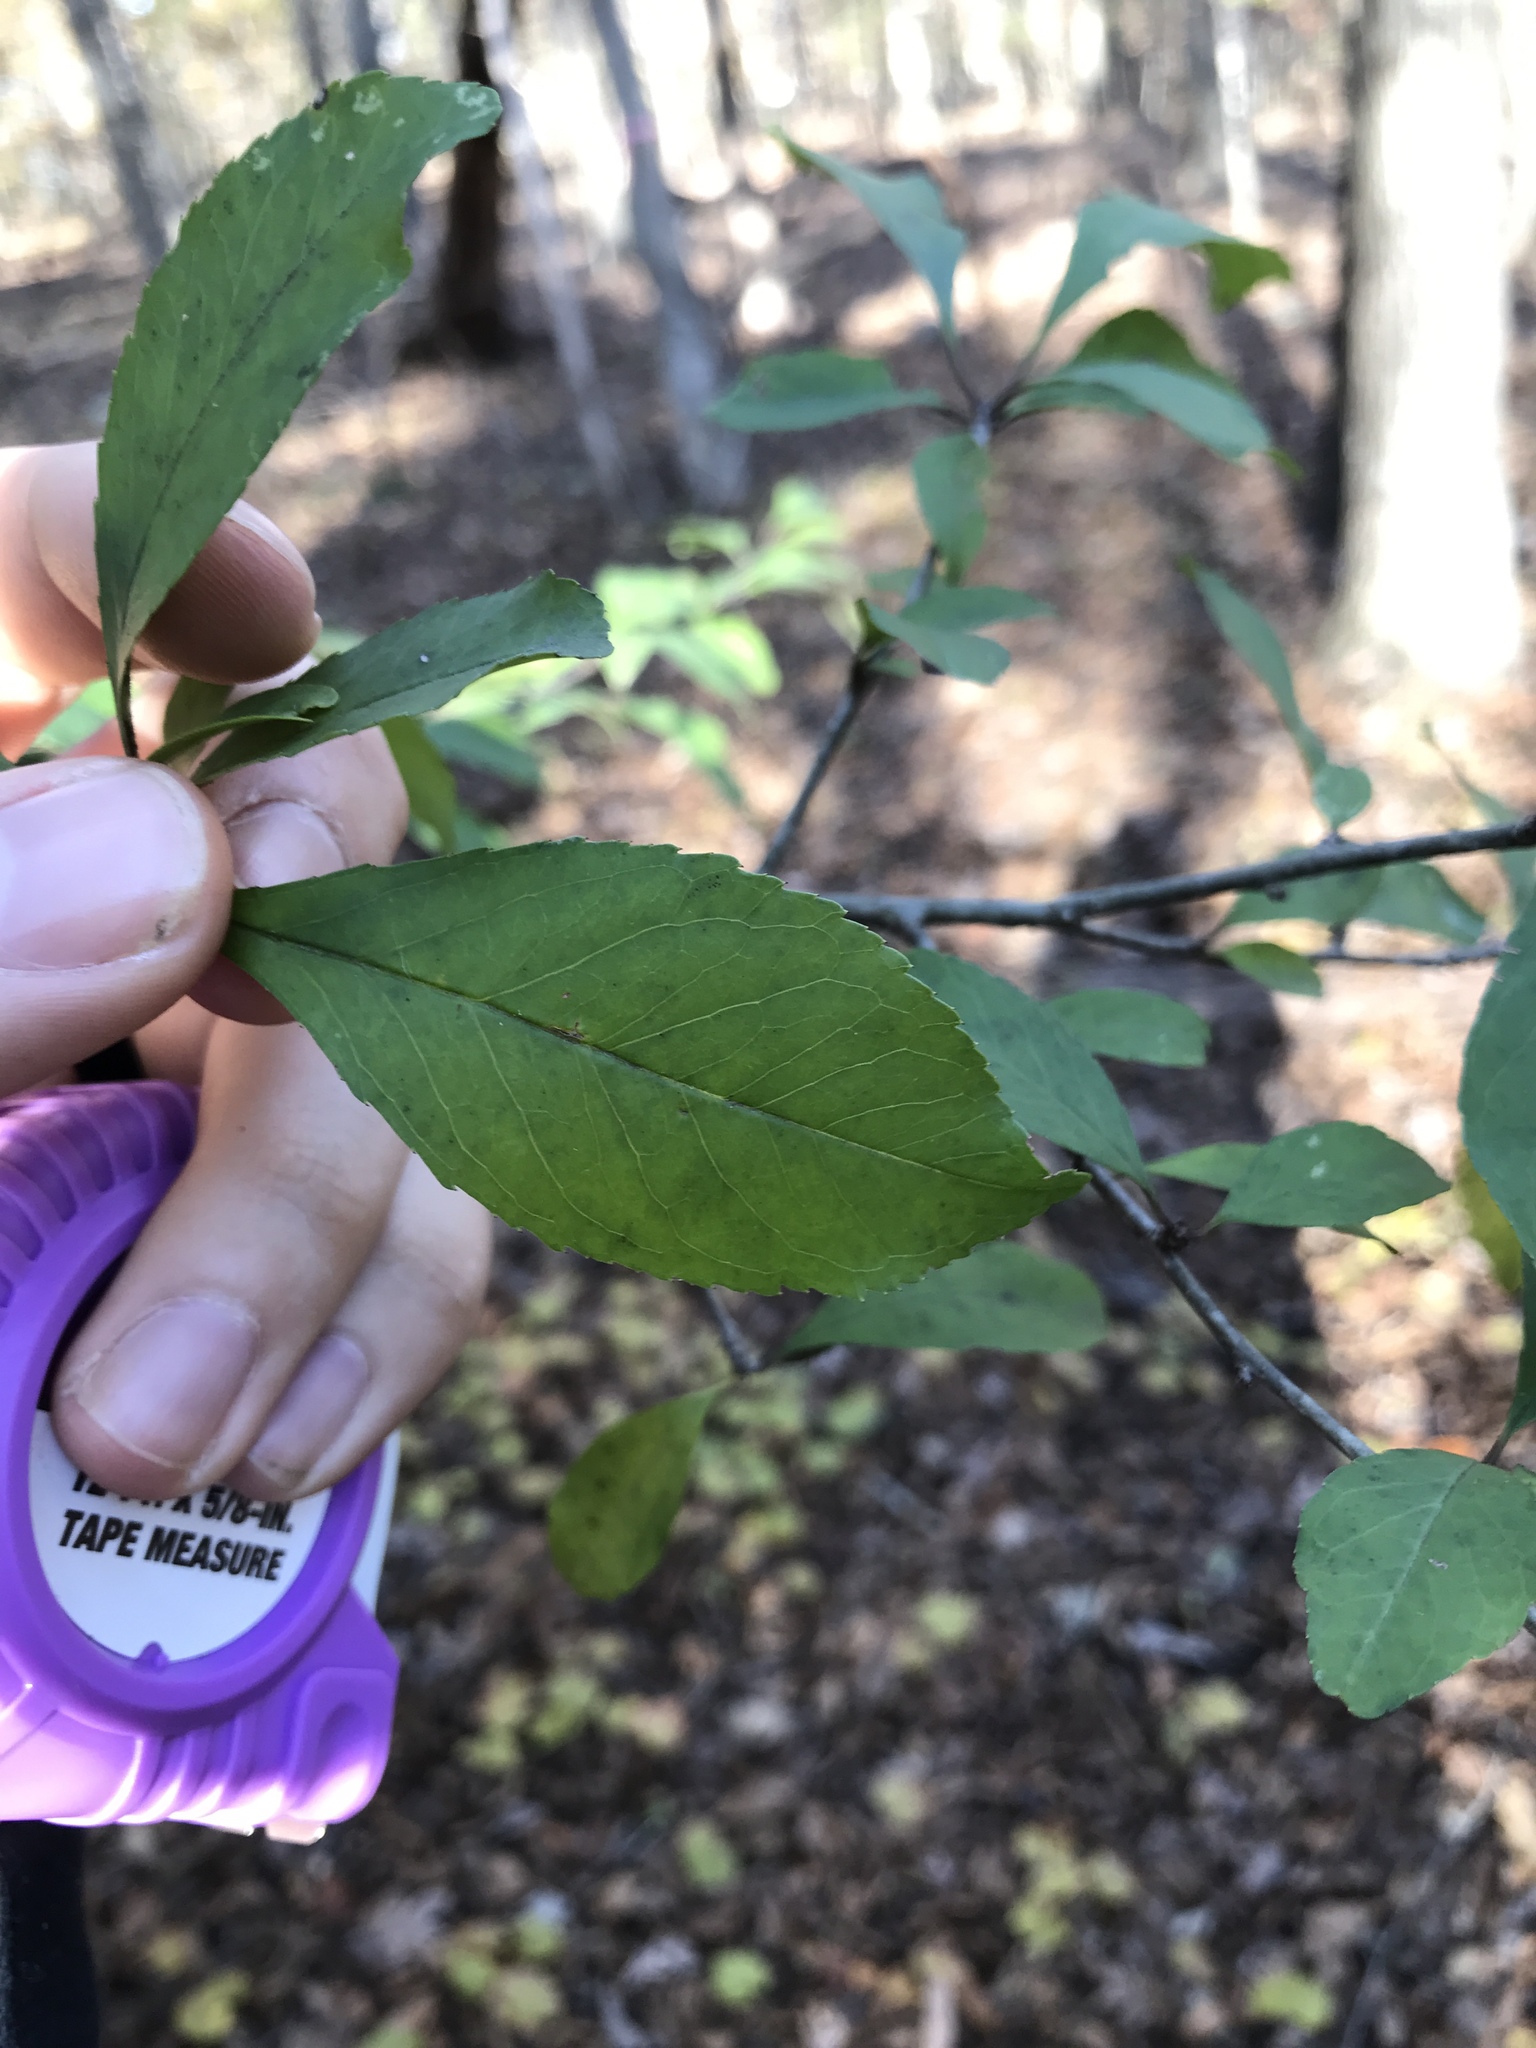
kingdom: Plantae
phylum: Tracheophyta
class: Magnoliopsida
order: Aquifoliales
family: Aquifoliaceae
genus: Ilex
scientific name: Ilex decidua
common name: Possum-haw
